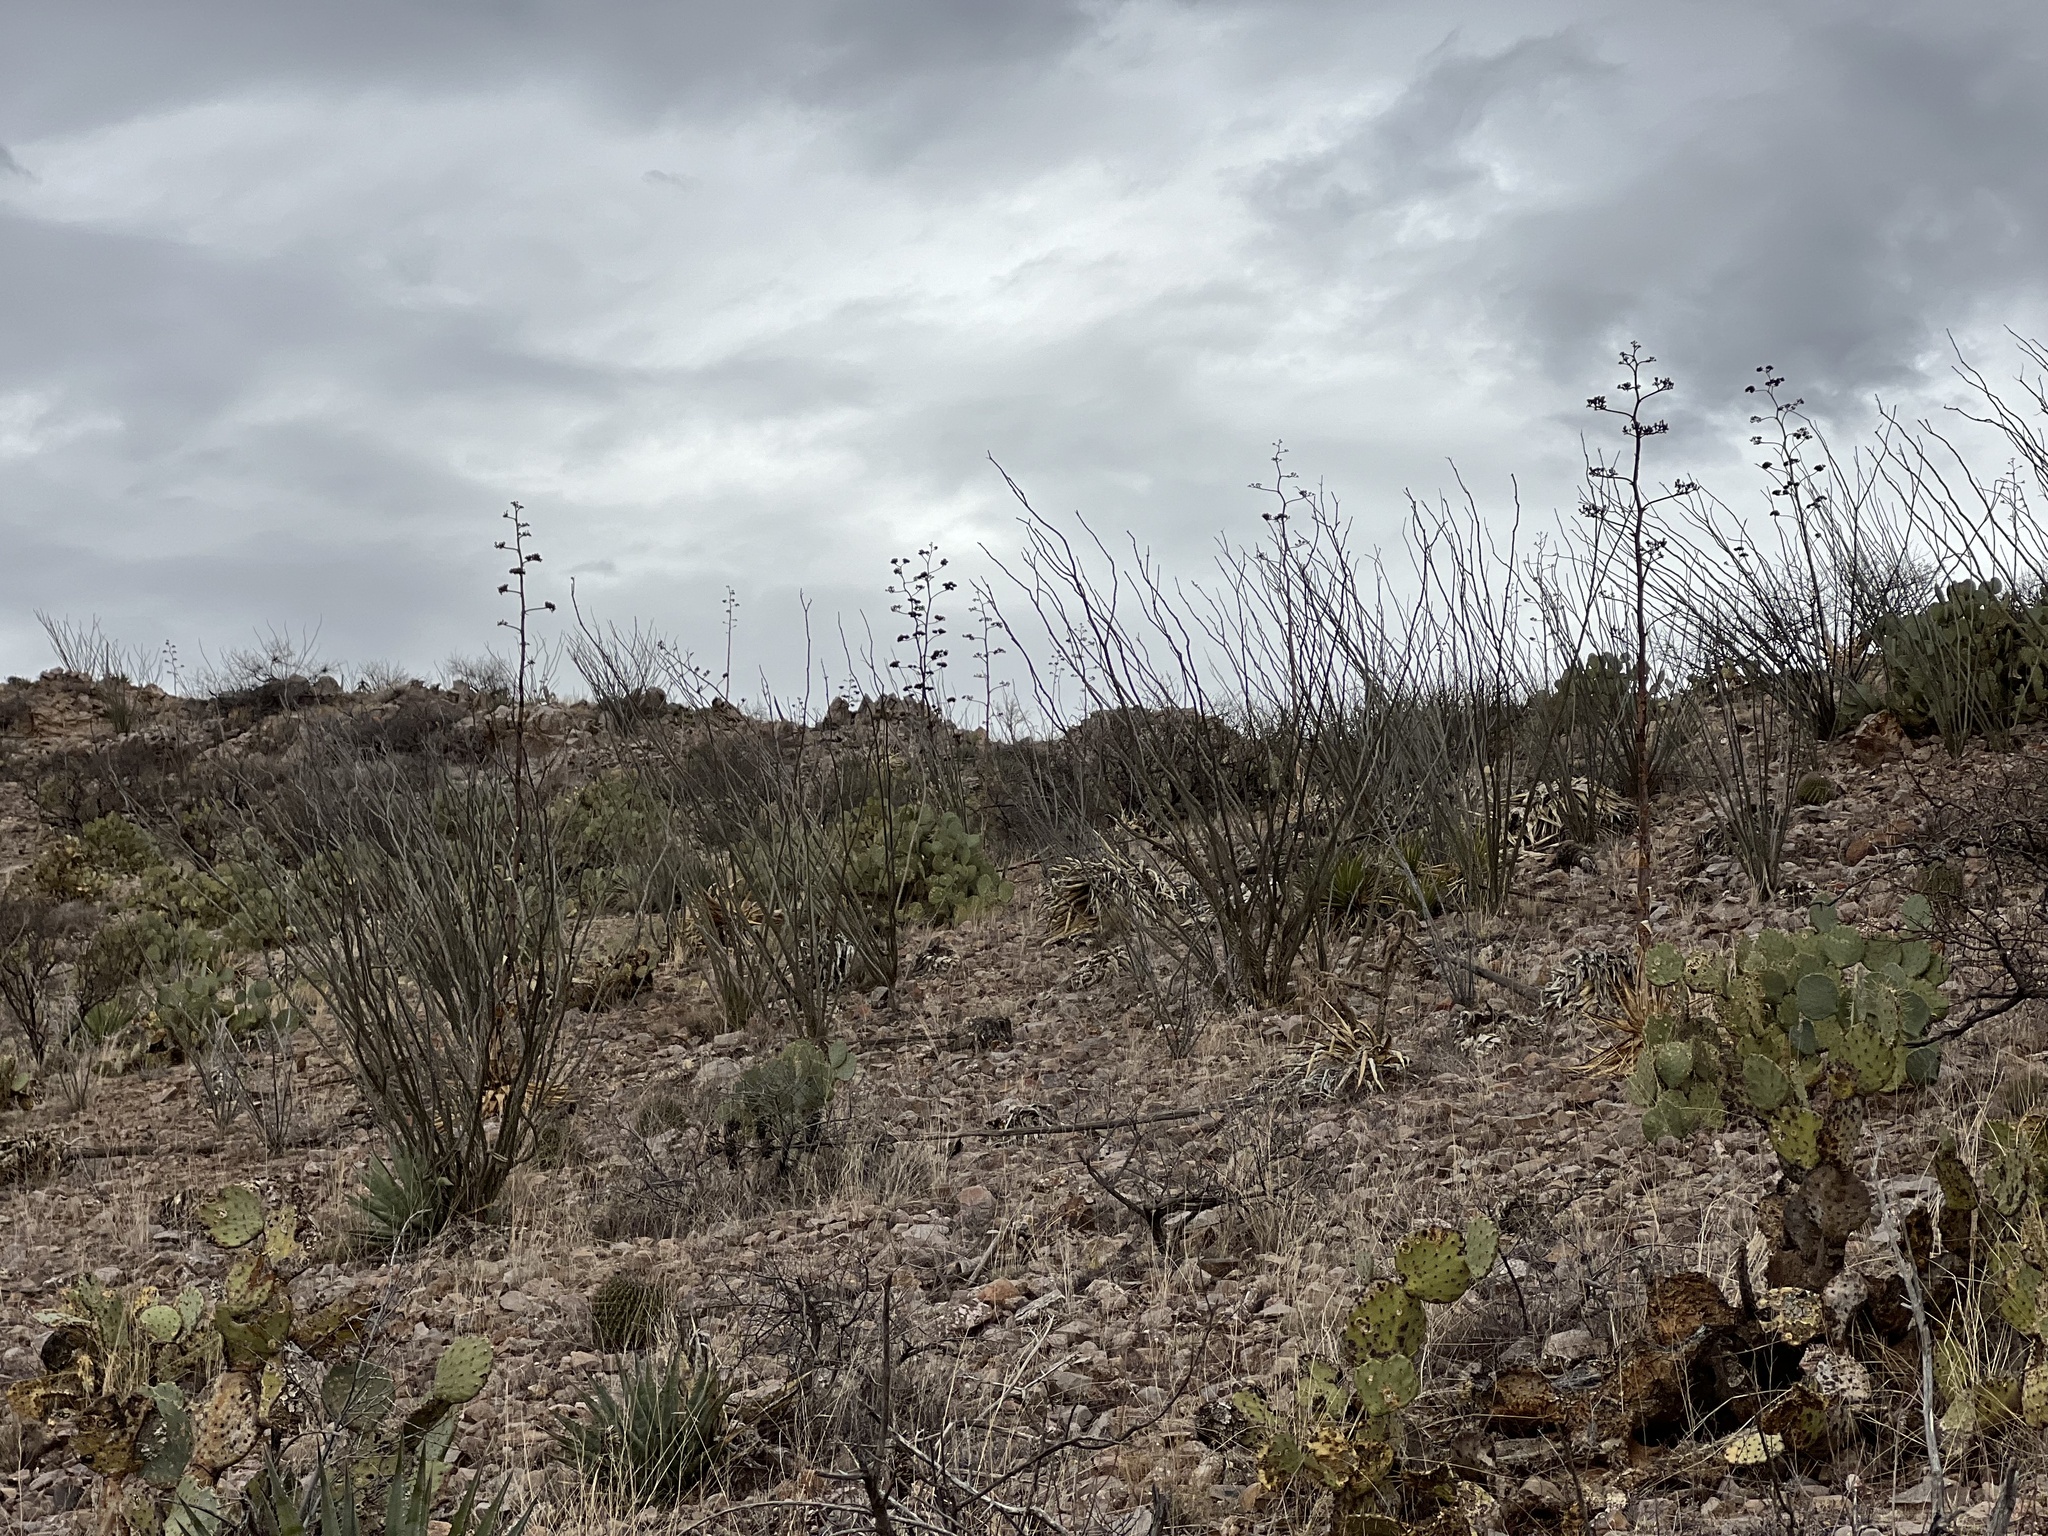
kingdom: Plantae
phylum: Tracheophyta
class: Magnoliopsida
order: Ericales
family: Fouquieriaceae
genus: Fouquieria
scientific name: Fouquieria splendens
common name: Vine-cactus
